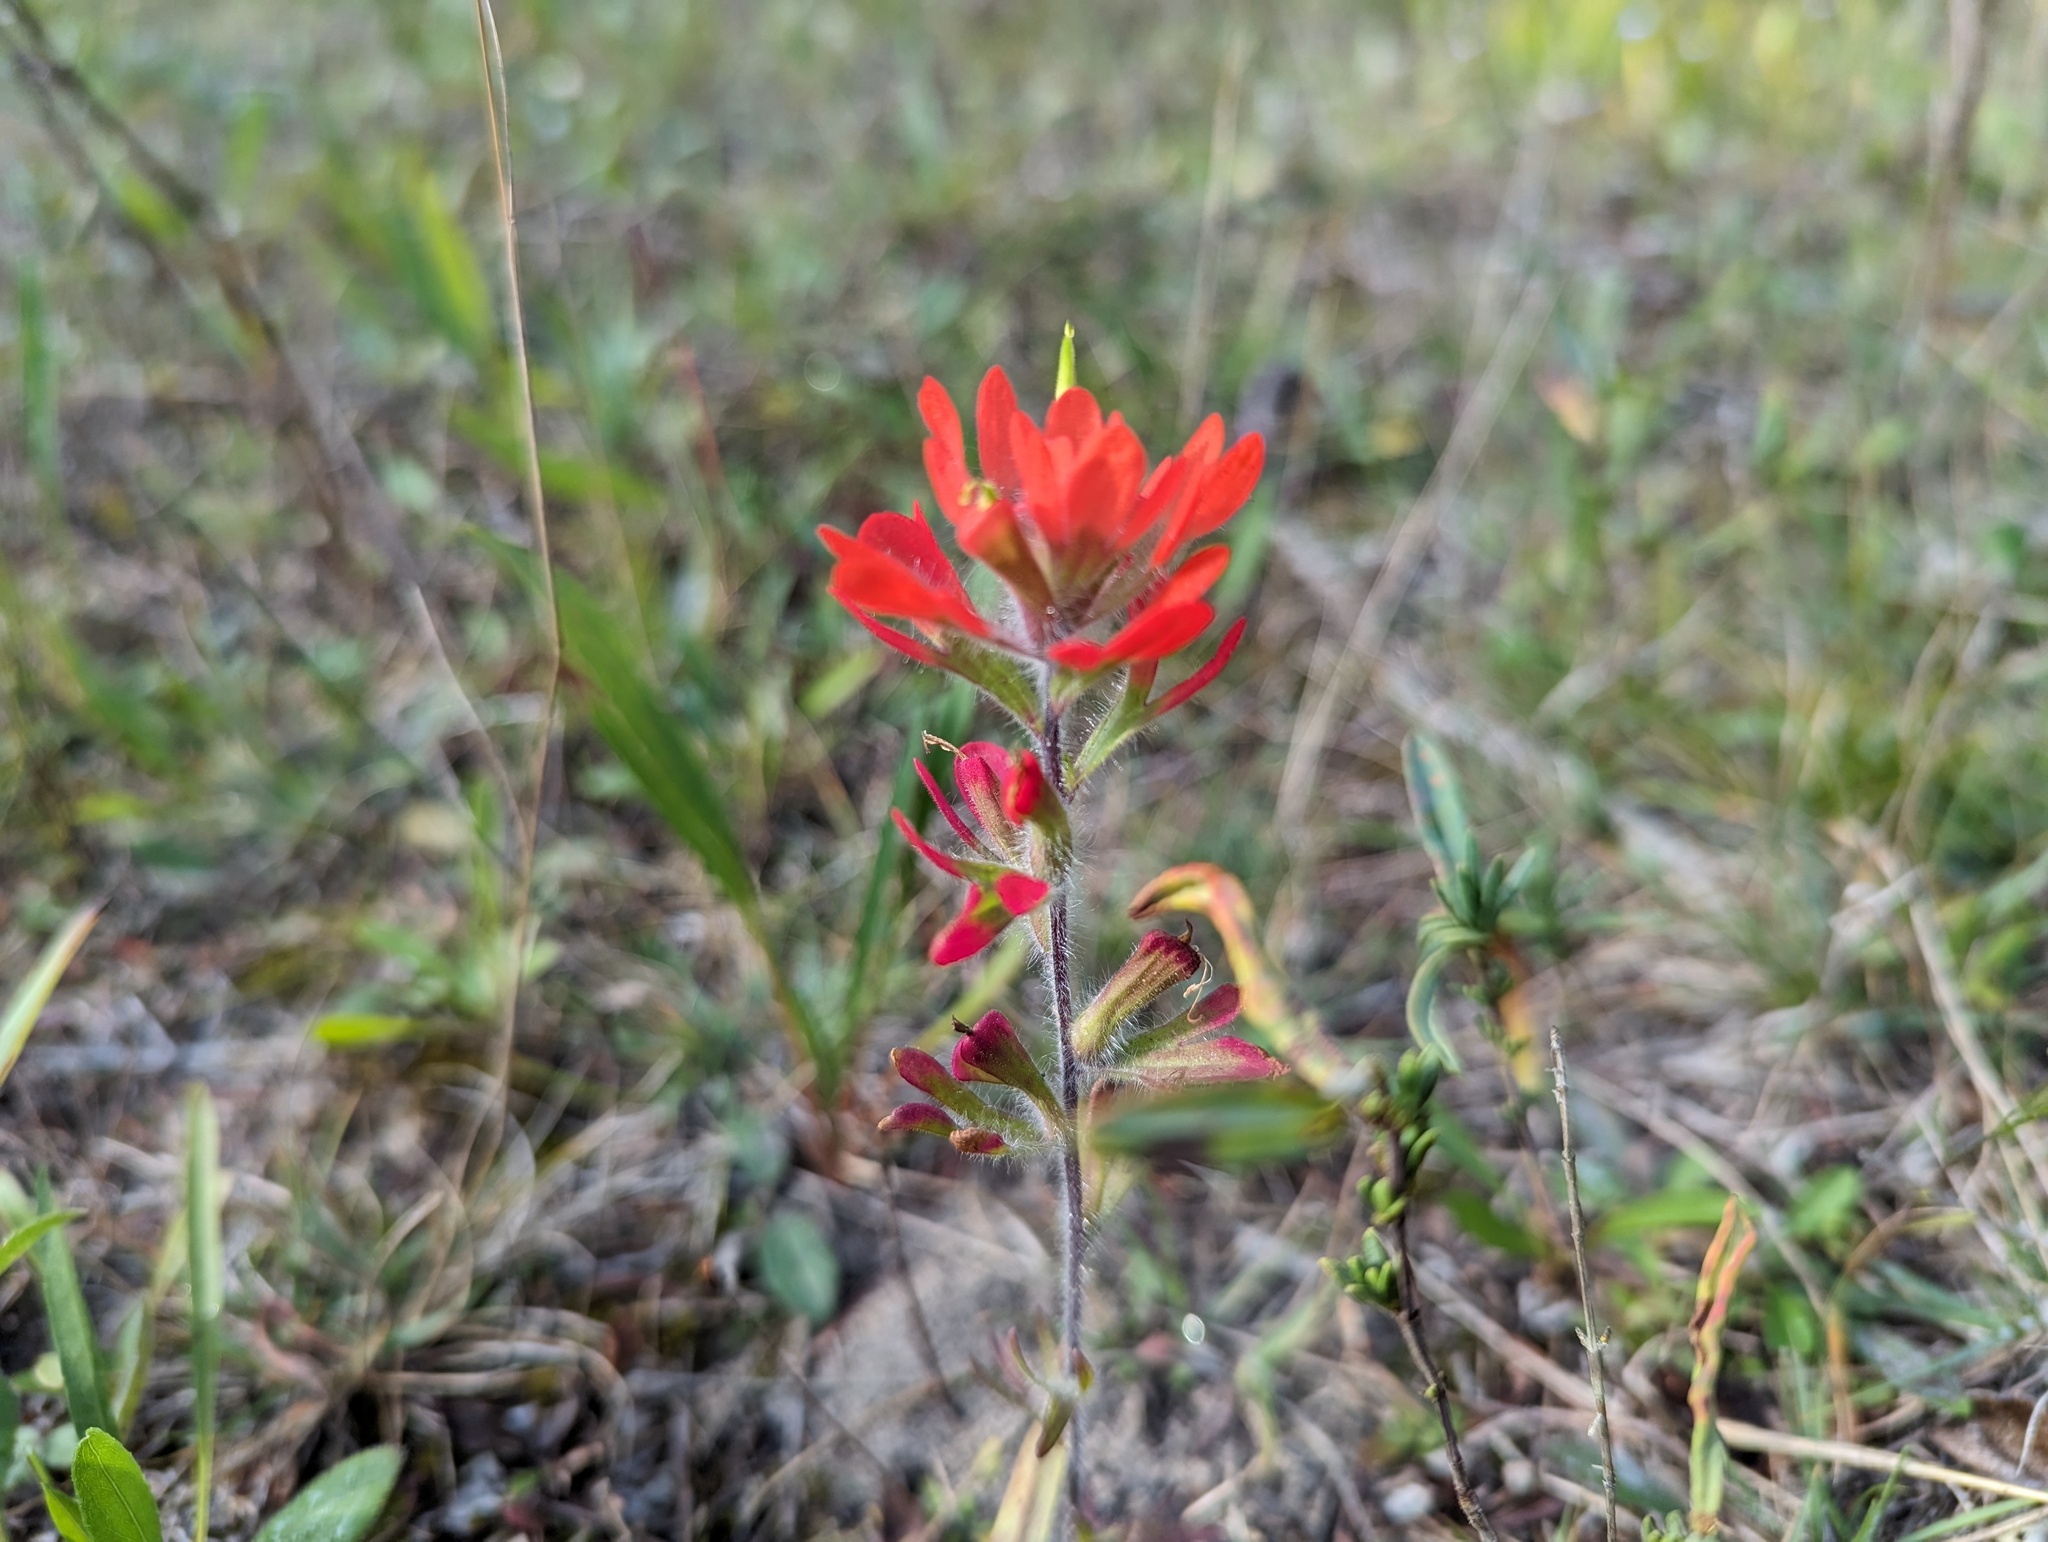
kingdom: Plantae
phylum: Tracheophyta
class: Magnoliopsida
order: Lamiales
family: Orobanchaceae
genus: Castilleja
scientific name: Castilleja coccinea
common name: Scarlet paintbrush
